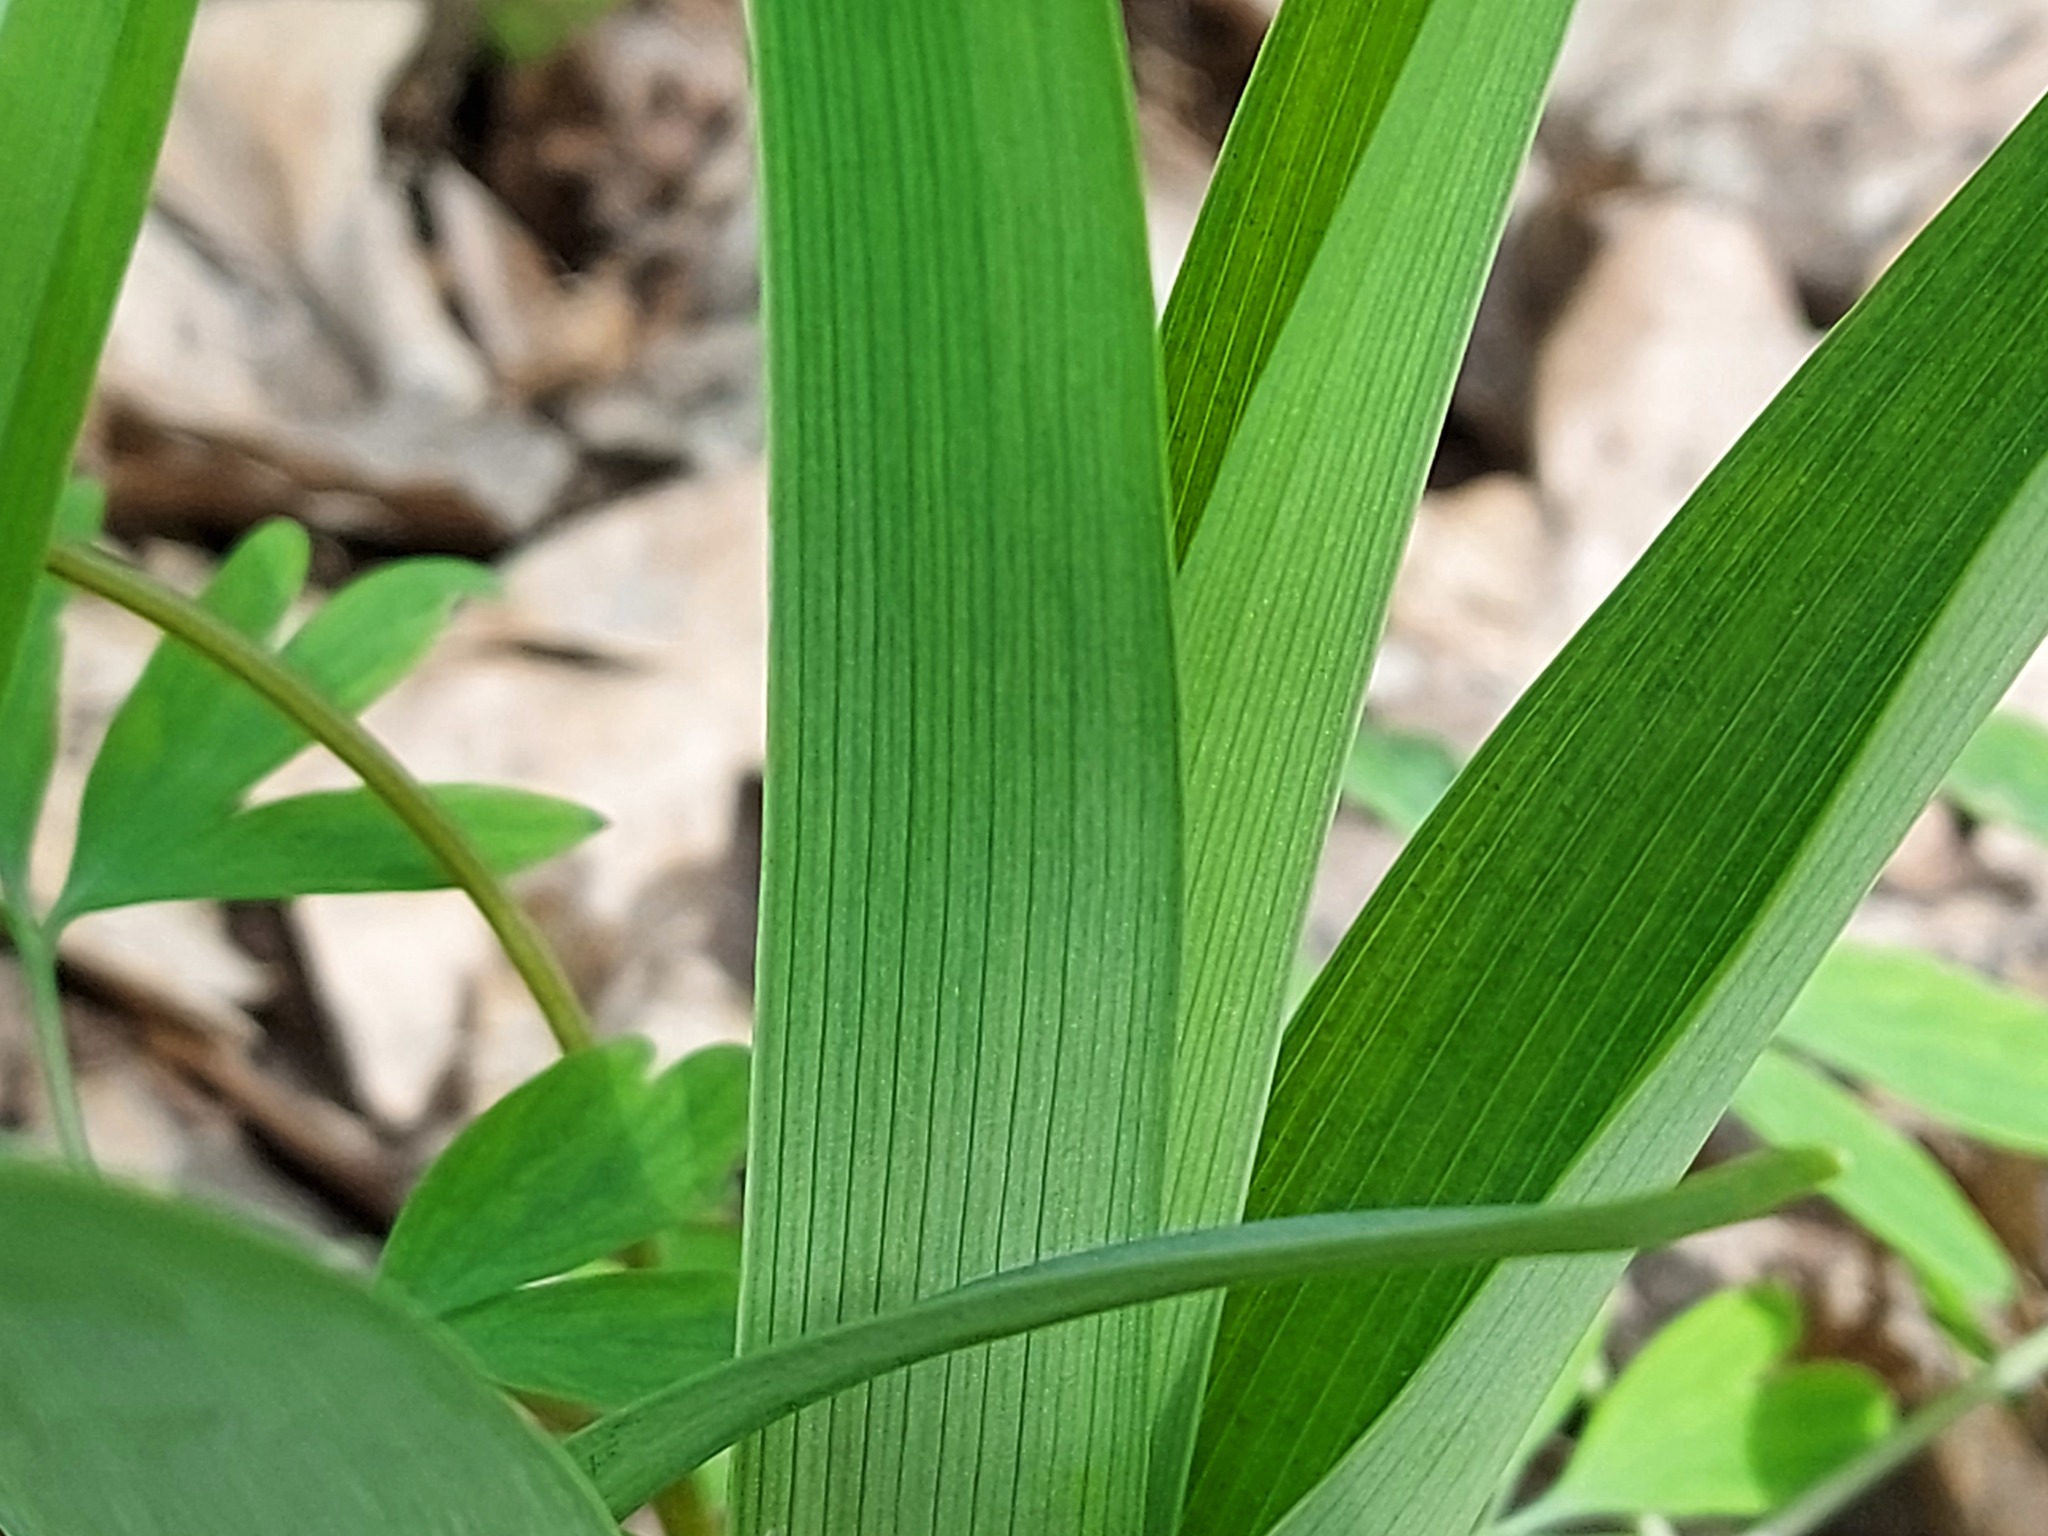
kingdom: Plantae
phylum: Tracheophyta
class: Liliopsida
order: Asparagales
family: Asphodelaceae
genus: Hemerocallis
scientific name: Hemerocallis fulva
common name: Orange day-lily
